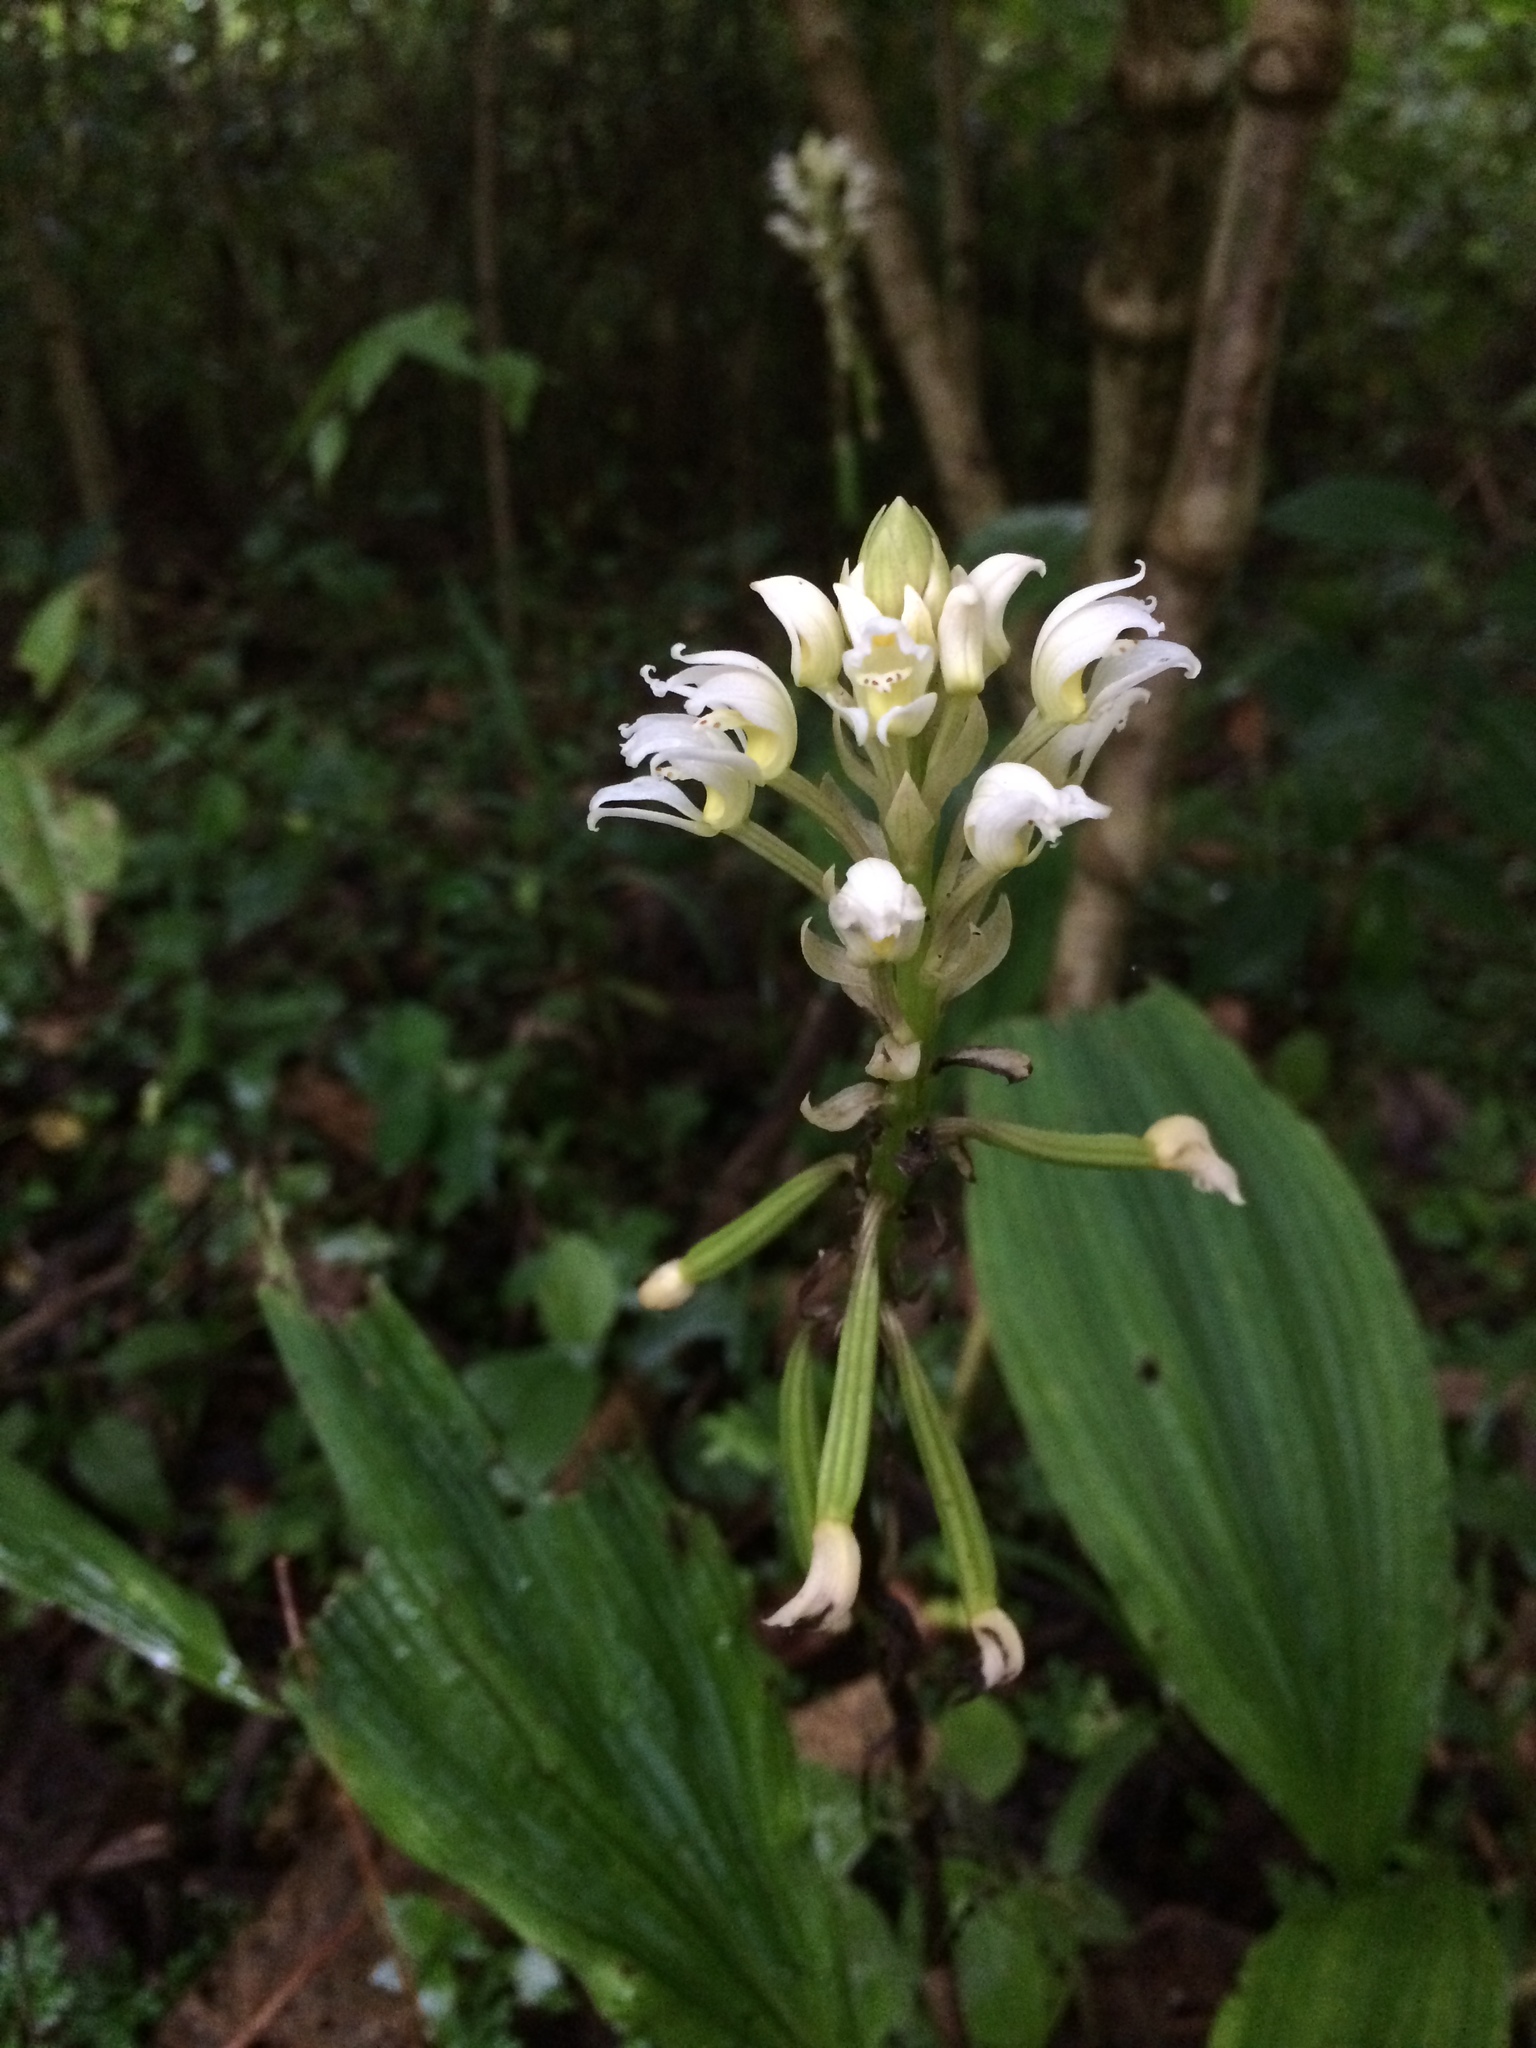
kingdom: Plantae
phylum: Tracheophyta
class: Liliopsida
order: Asparagales
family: Orchidaceae
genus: Govenia
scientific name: Govenia alba
